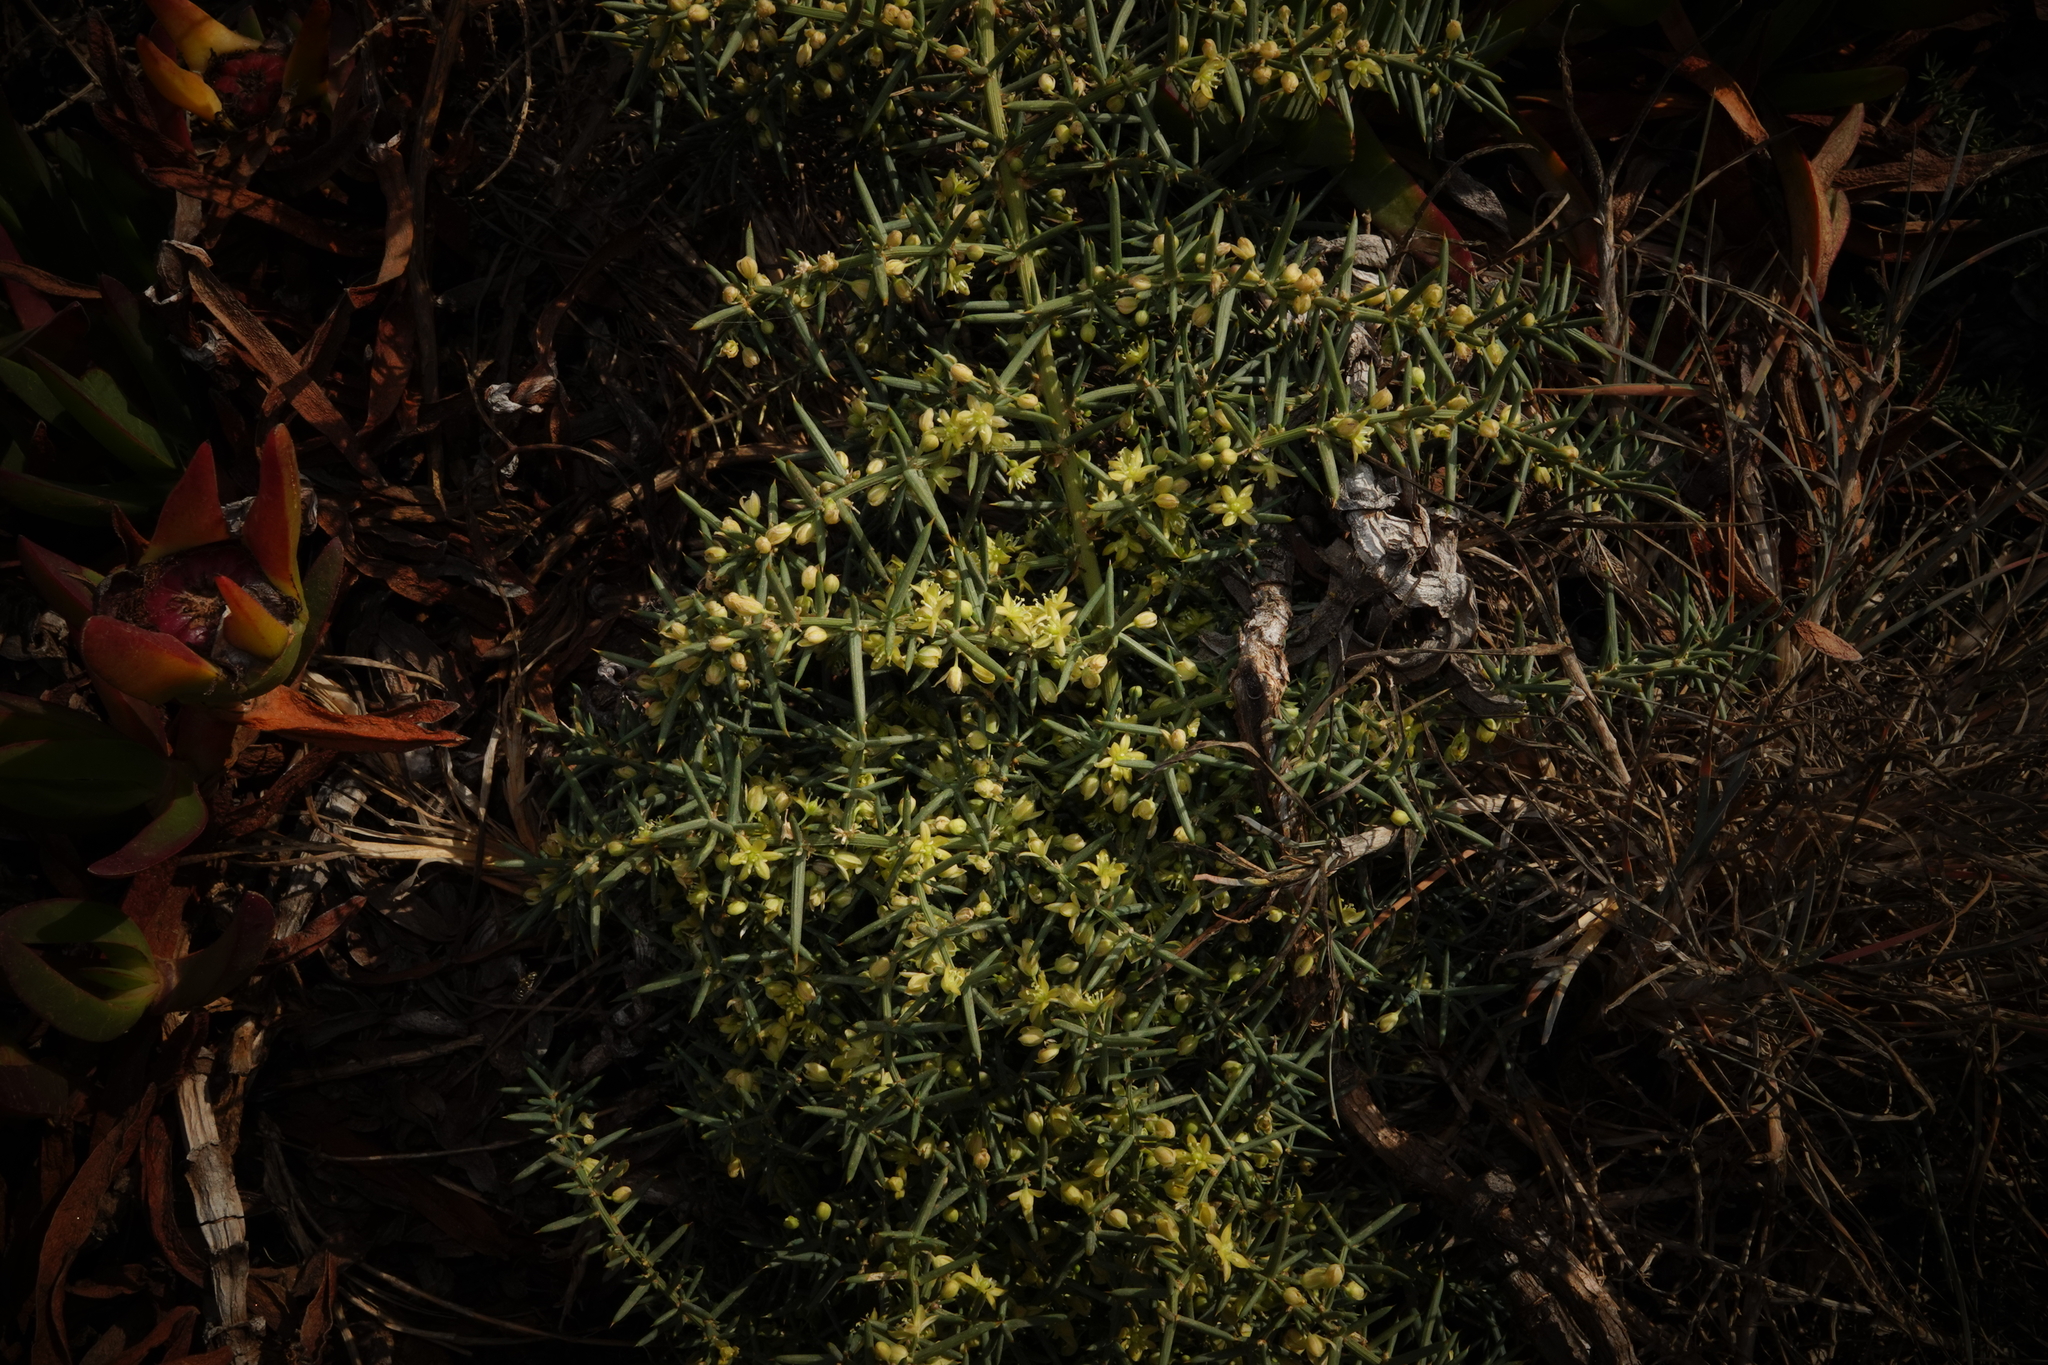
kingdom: Plantae
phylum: Tracheophyta
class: Liliopsida
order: Asparagales
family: Asparagaceae
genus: Asparagus
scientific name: Asparagus aphyllus
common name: Mediterranean asparagus
